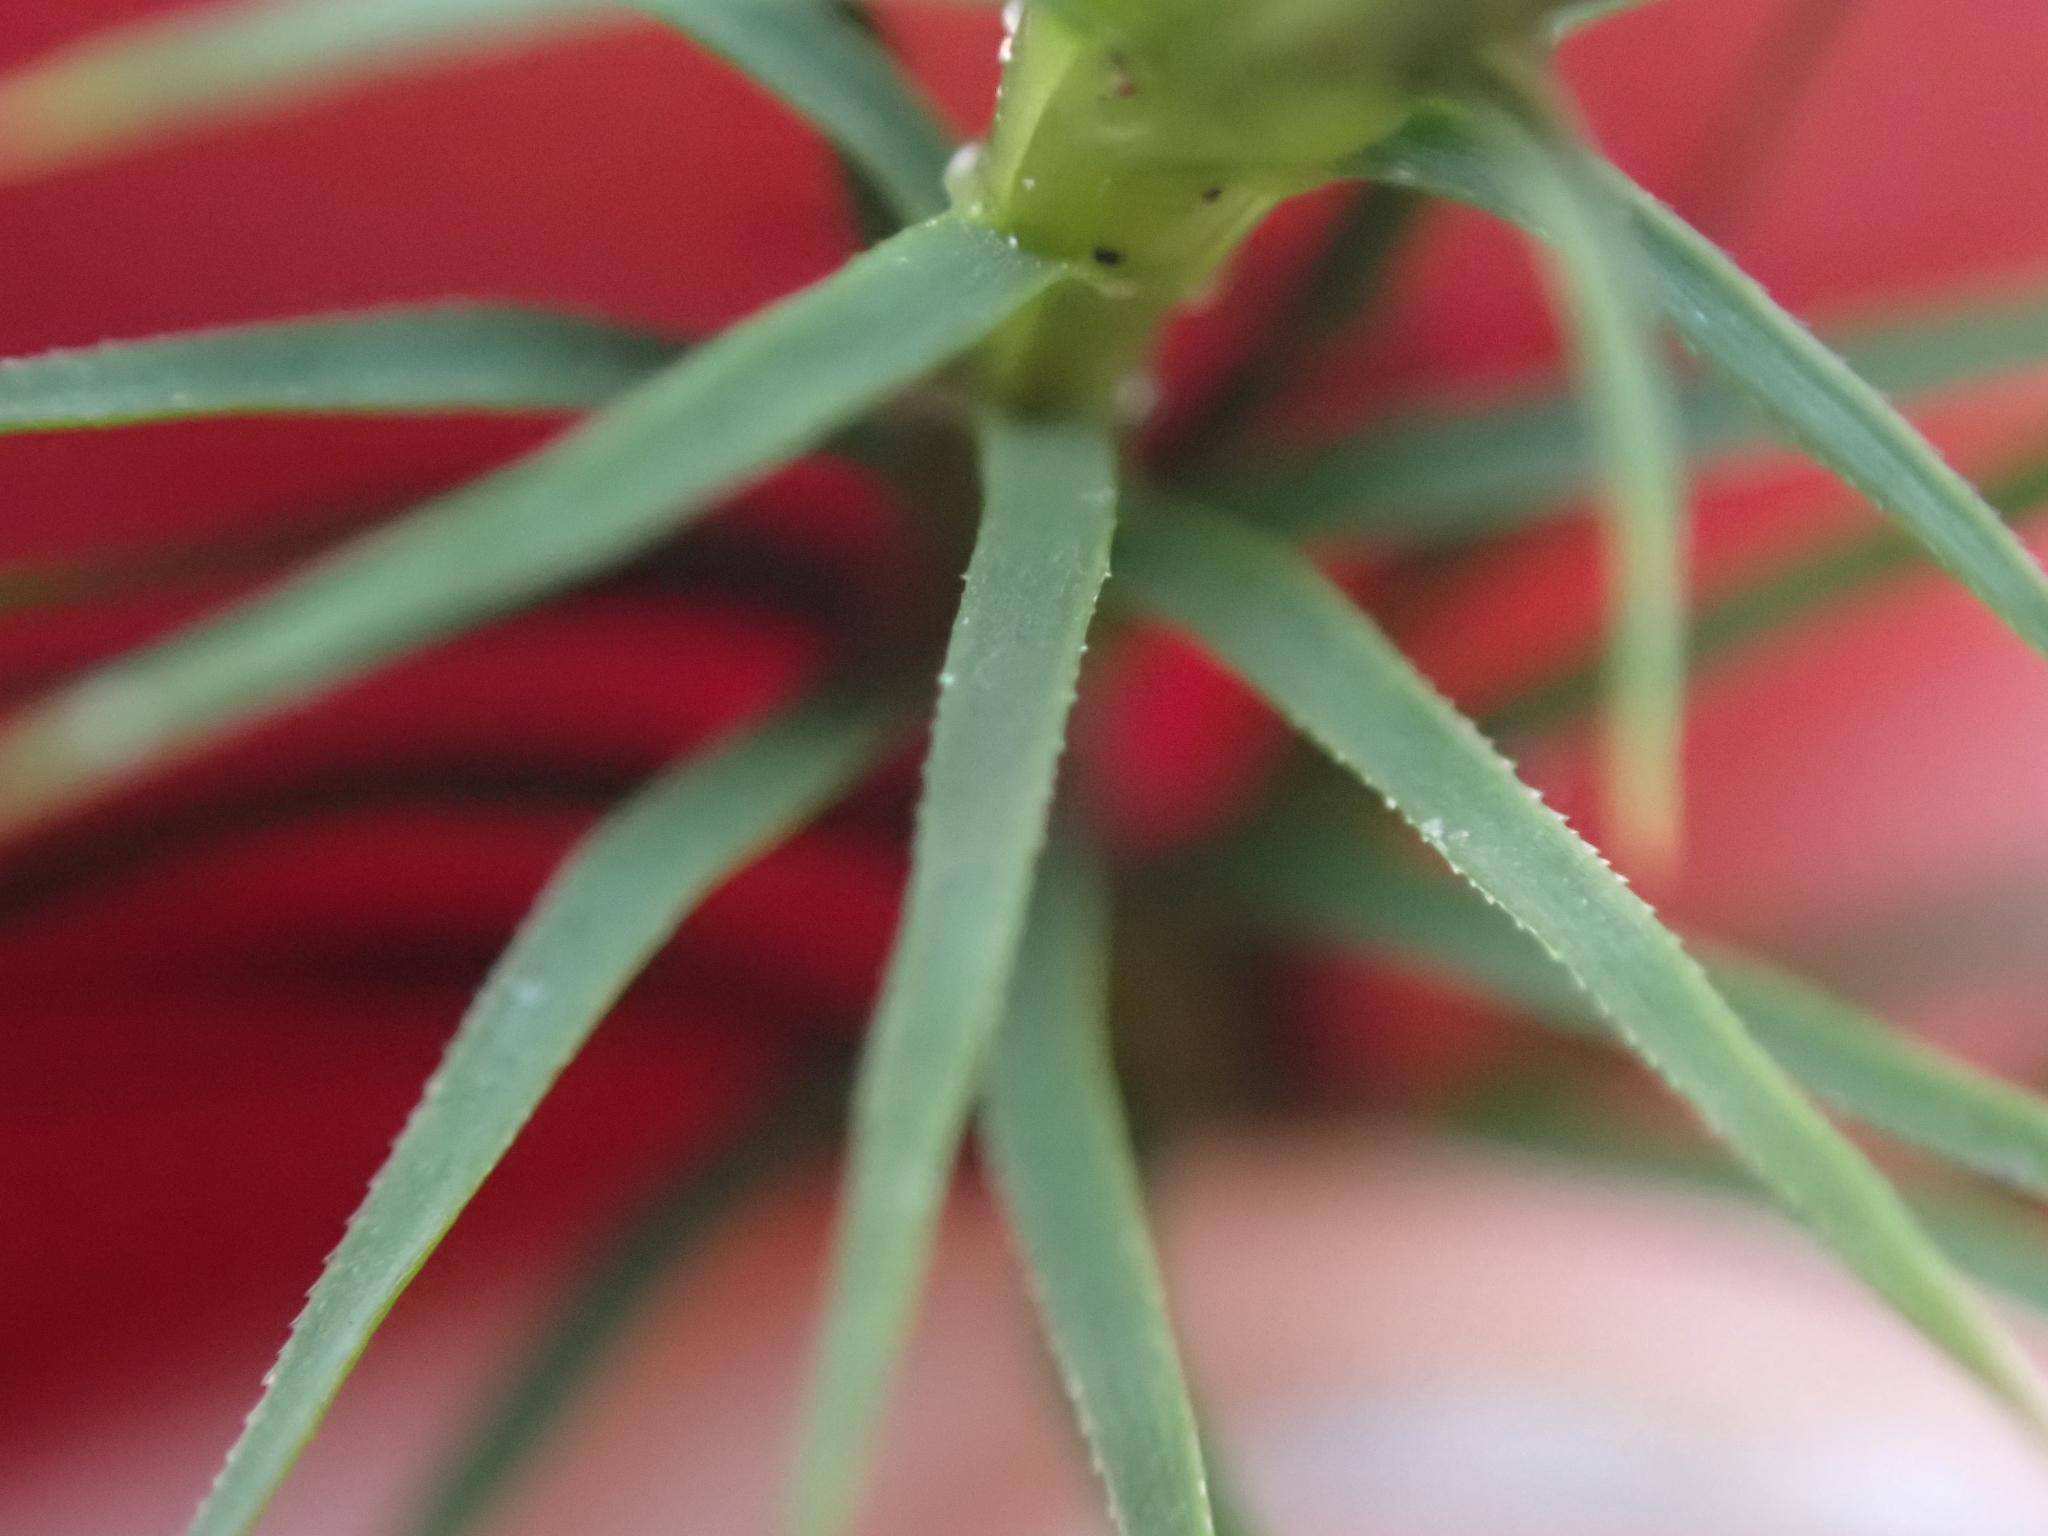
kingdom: Plantae
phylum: Bryophyta
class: Polytrichopsida
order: Polytrichales
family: Polytrichaceae
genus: Polytrichum
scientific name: Polytrichum commune
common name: Common haircap
